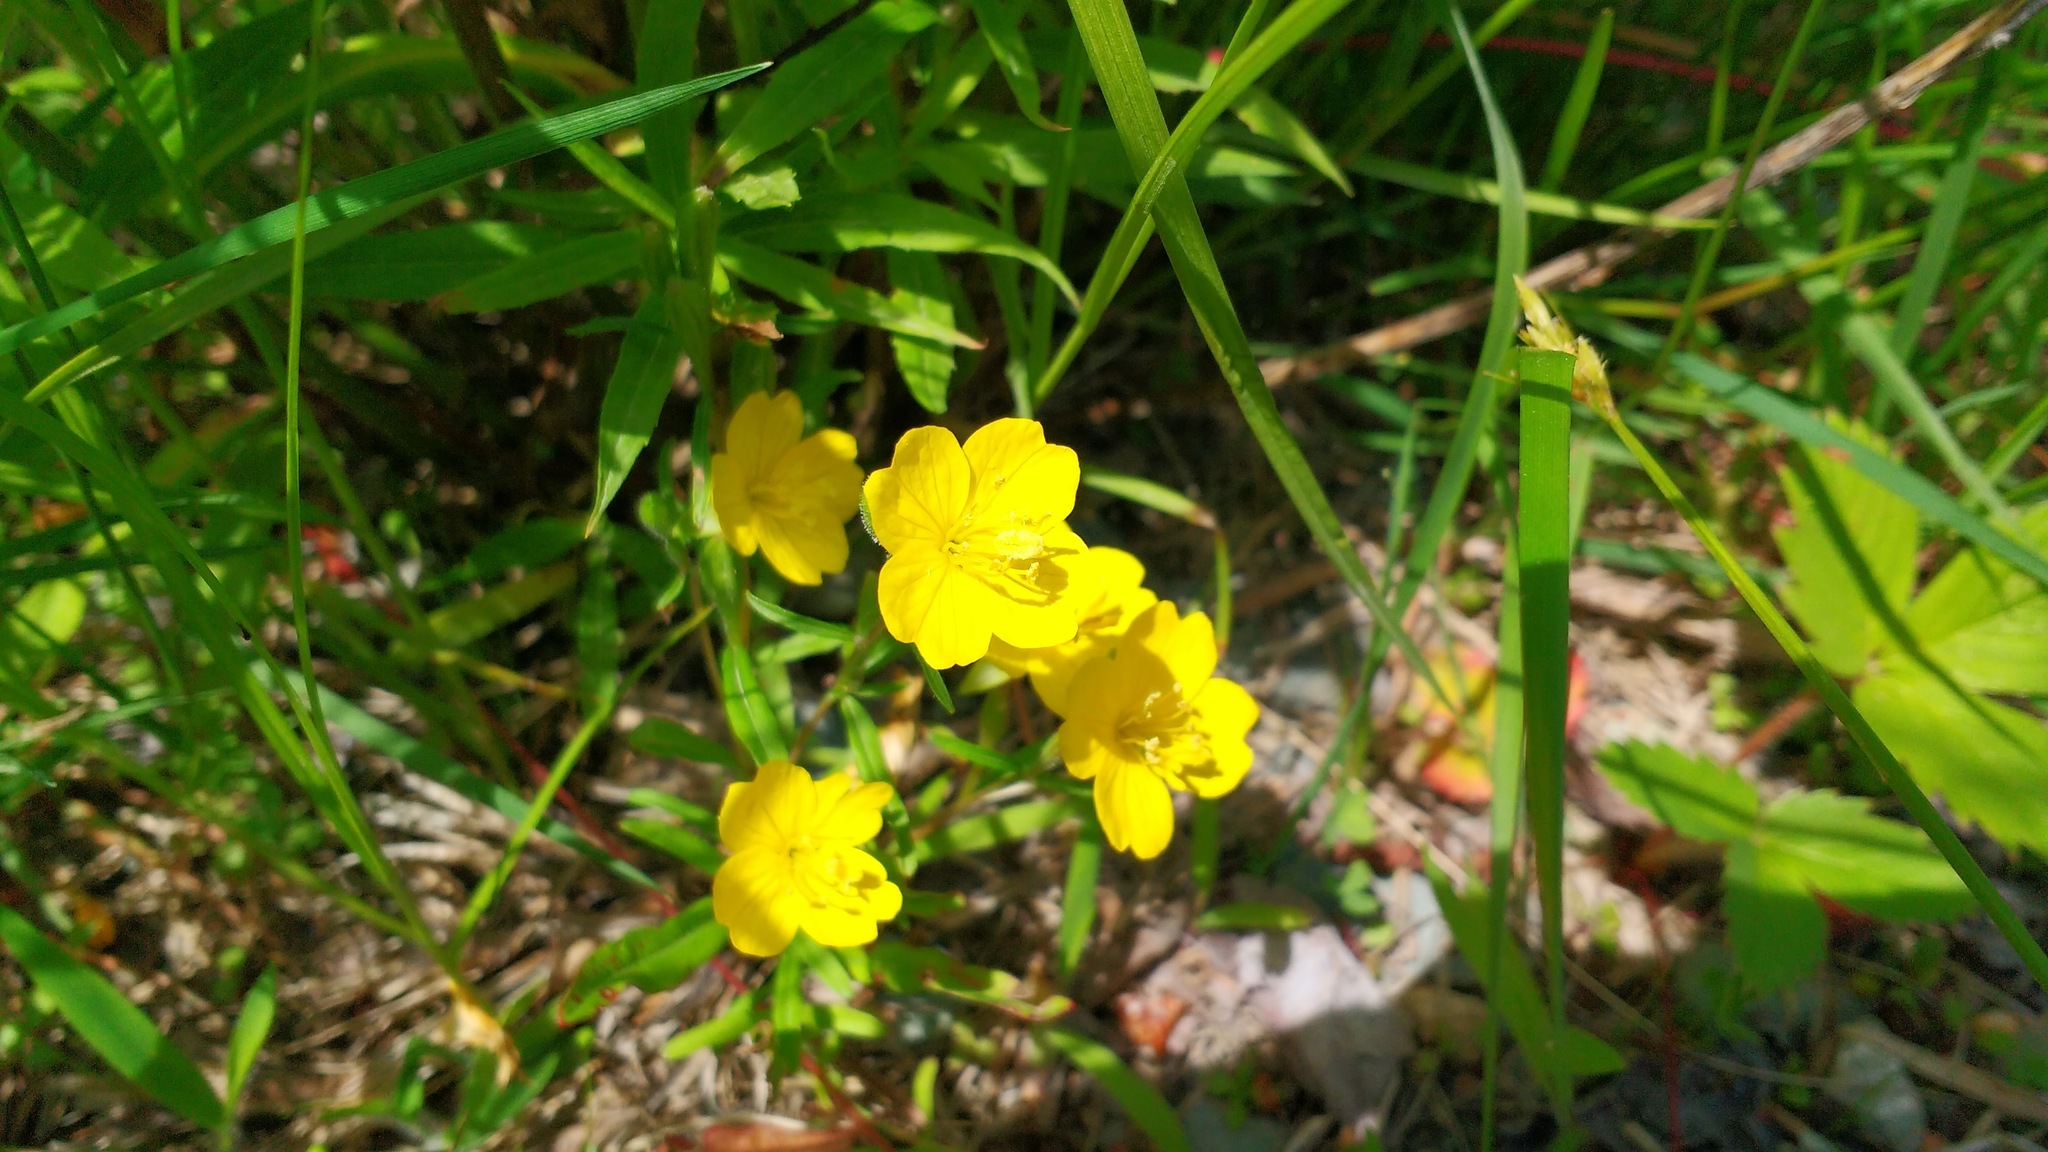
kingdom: Plantae
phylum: Tracheophyta
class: Magnoliopsida
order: Myrtales
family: Onagraceae
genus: Oenothera
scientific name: Oenothera perennis
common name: Small sundrops
